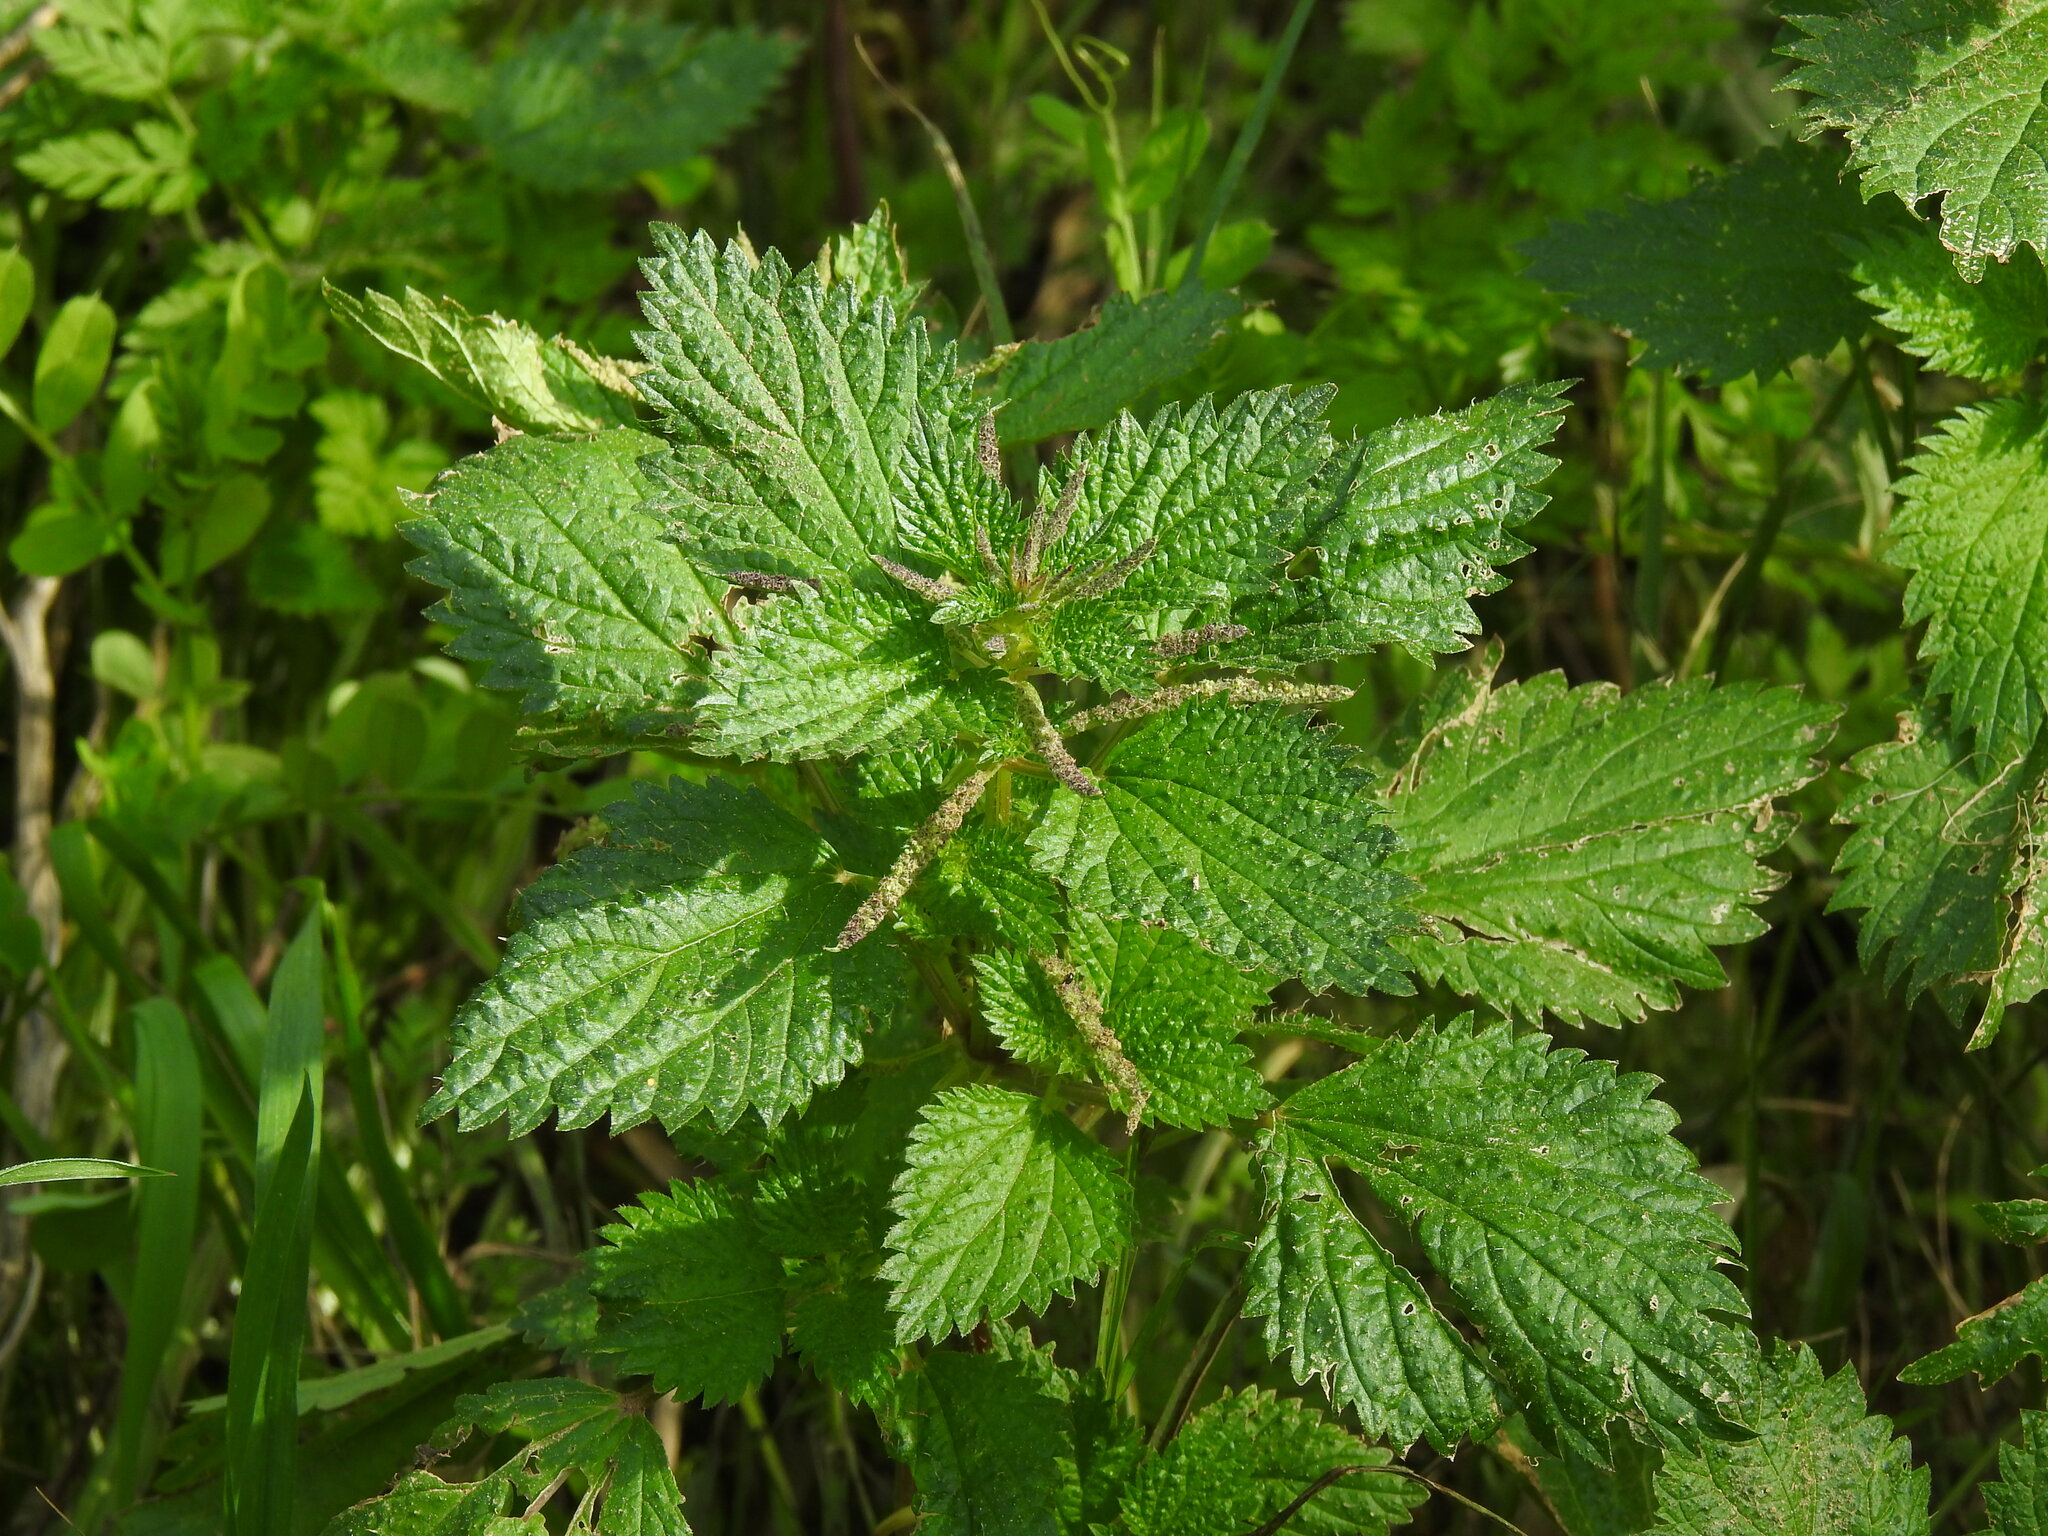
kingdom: Plantae
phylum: Tracheophyta
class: Magnoliopsida
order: Rosales
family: Urticaceae
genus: Urtica
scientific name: Urtica membranacea
